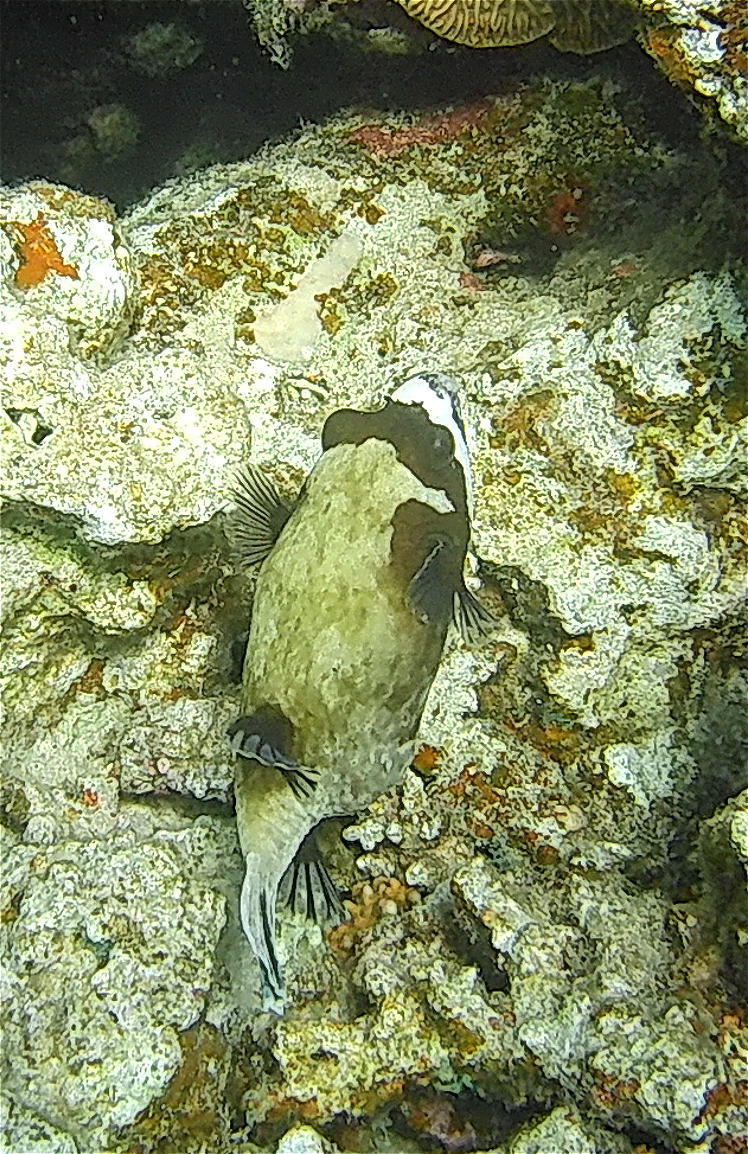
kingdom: Animalia
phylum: Chordata
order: Tetraodontiformes
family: Tetraodontidae
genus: Arothron
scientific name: Arothron diadematus
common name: Masked puffer
